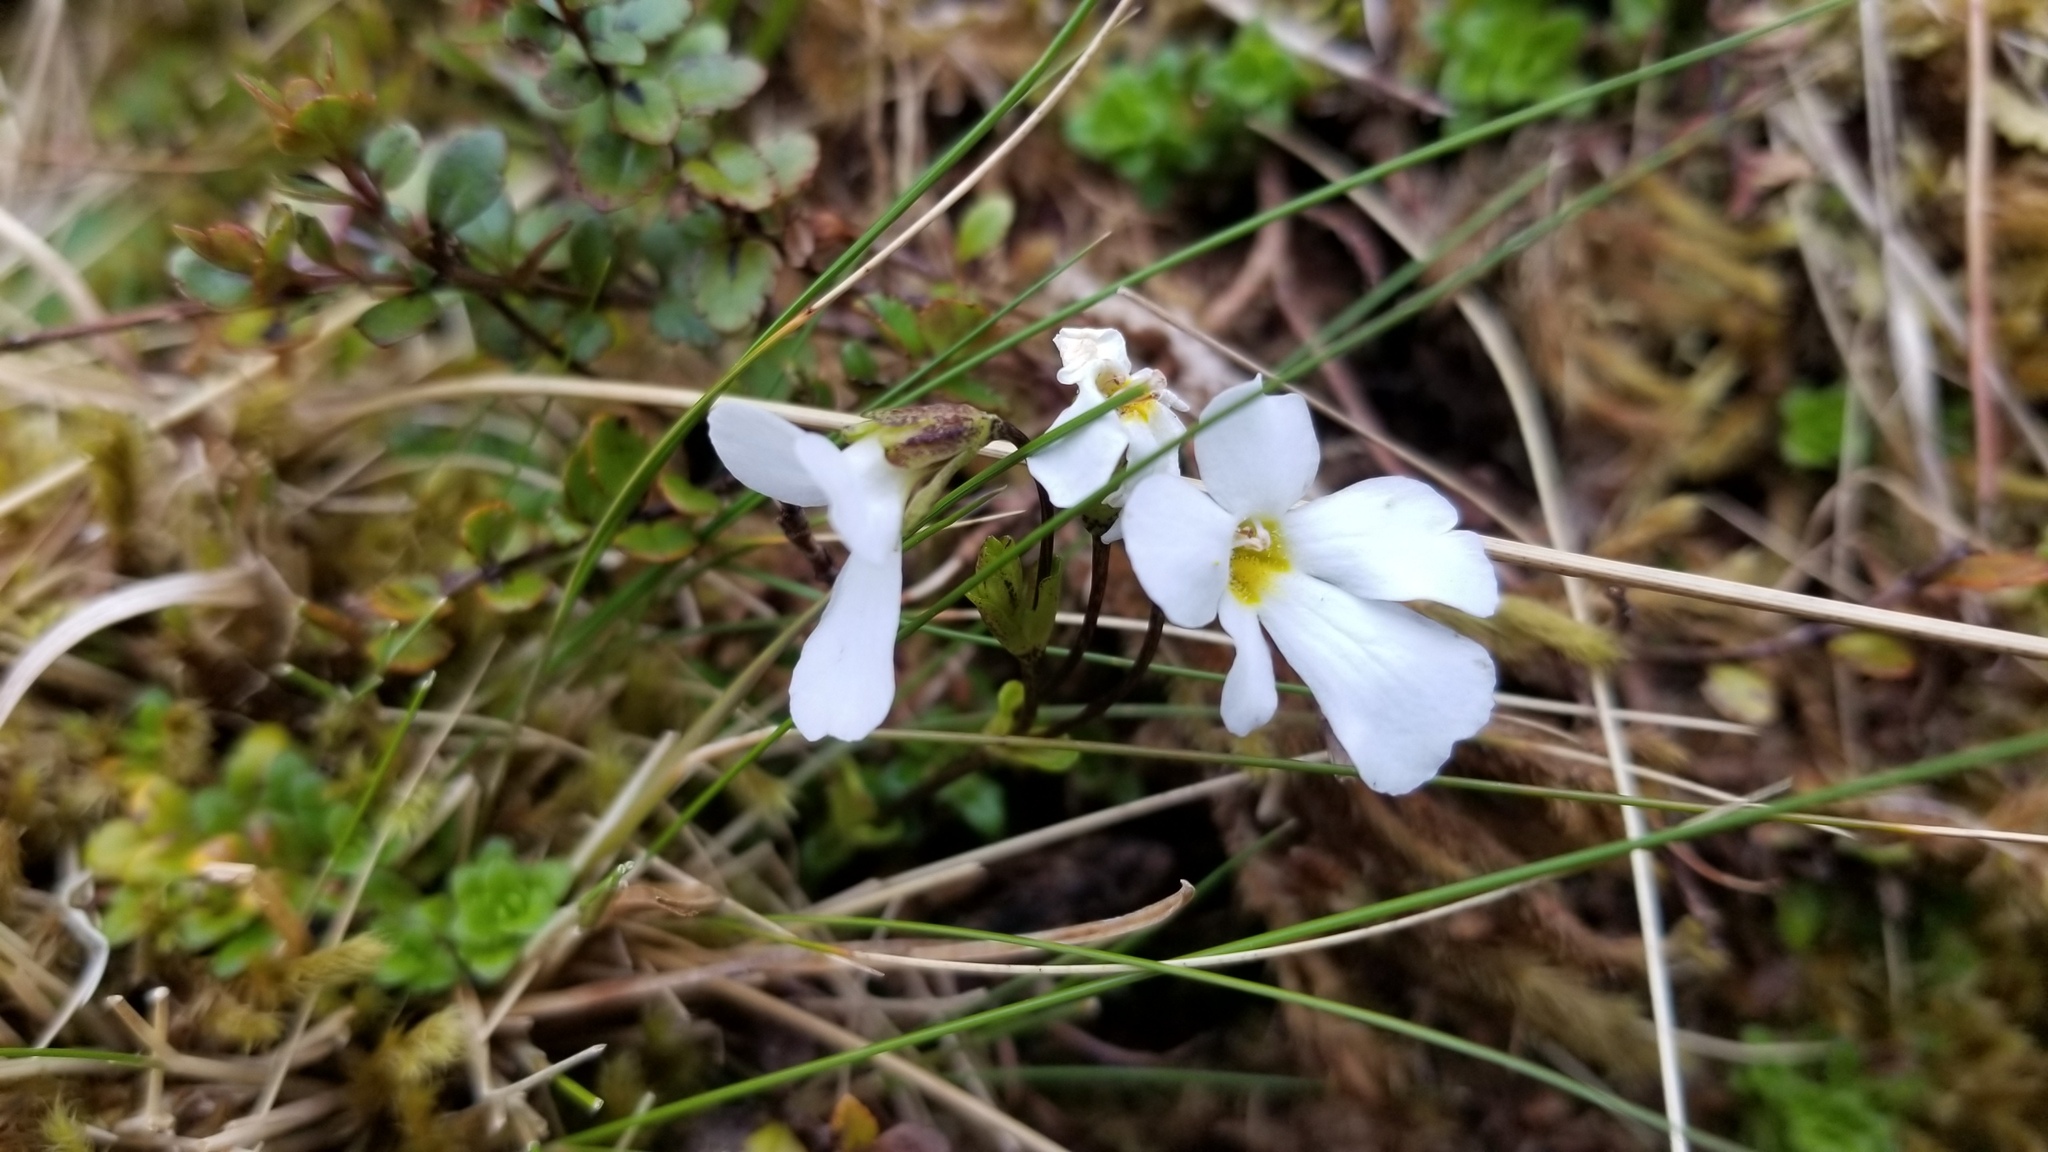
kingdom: Plantae
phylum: Tracheophyta
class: Magnoliopsida
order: Lamiales
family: Plantaginaceae
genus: Ourisia
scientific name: Ourisia caespitosa
